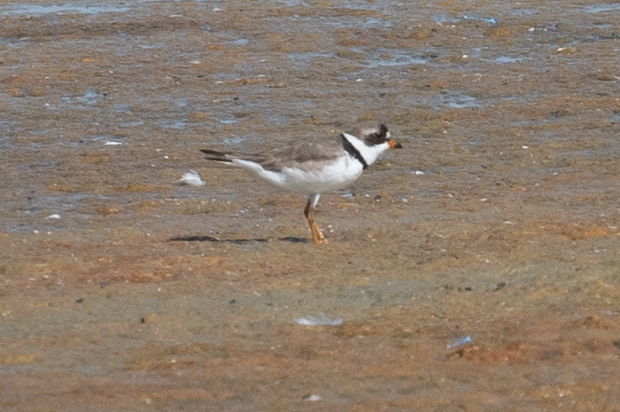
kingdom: Animalia
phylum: Chordata
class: Aves
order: Charadriiformes
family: Charadriidae
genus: Charadrius
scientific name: Charadrius semipalmatus
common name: Semipalmated plover
